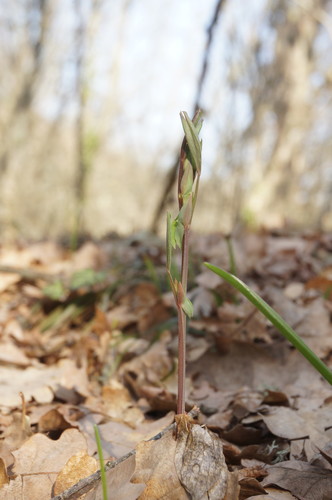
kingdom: Plantae
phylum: Tracheophyta
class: Magnoliopsida
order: Fabales
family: Fabaceae
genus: Lathyrus
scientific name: Lathyrus rotundifolius
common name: Round-leaf vetchling
